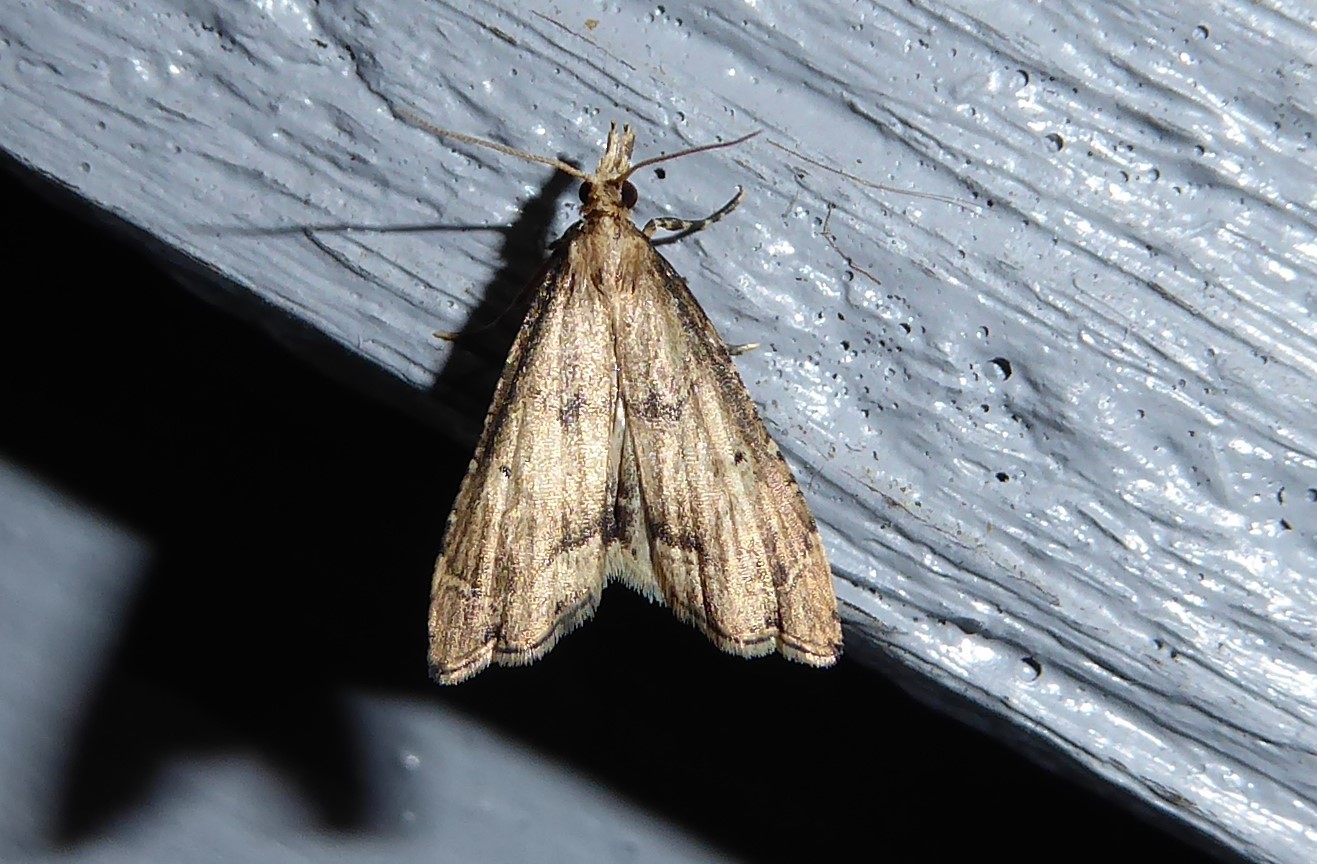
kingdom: Animalia
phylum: Arthropoda
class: Insecta
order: Lepidoptera
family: Crambidae
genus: Diplopseustis
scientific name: Diplopseustis perieresalis
